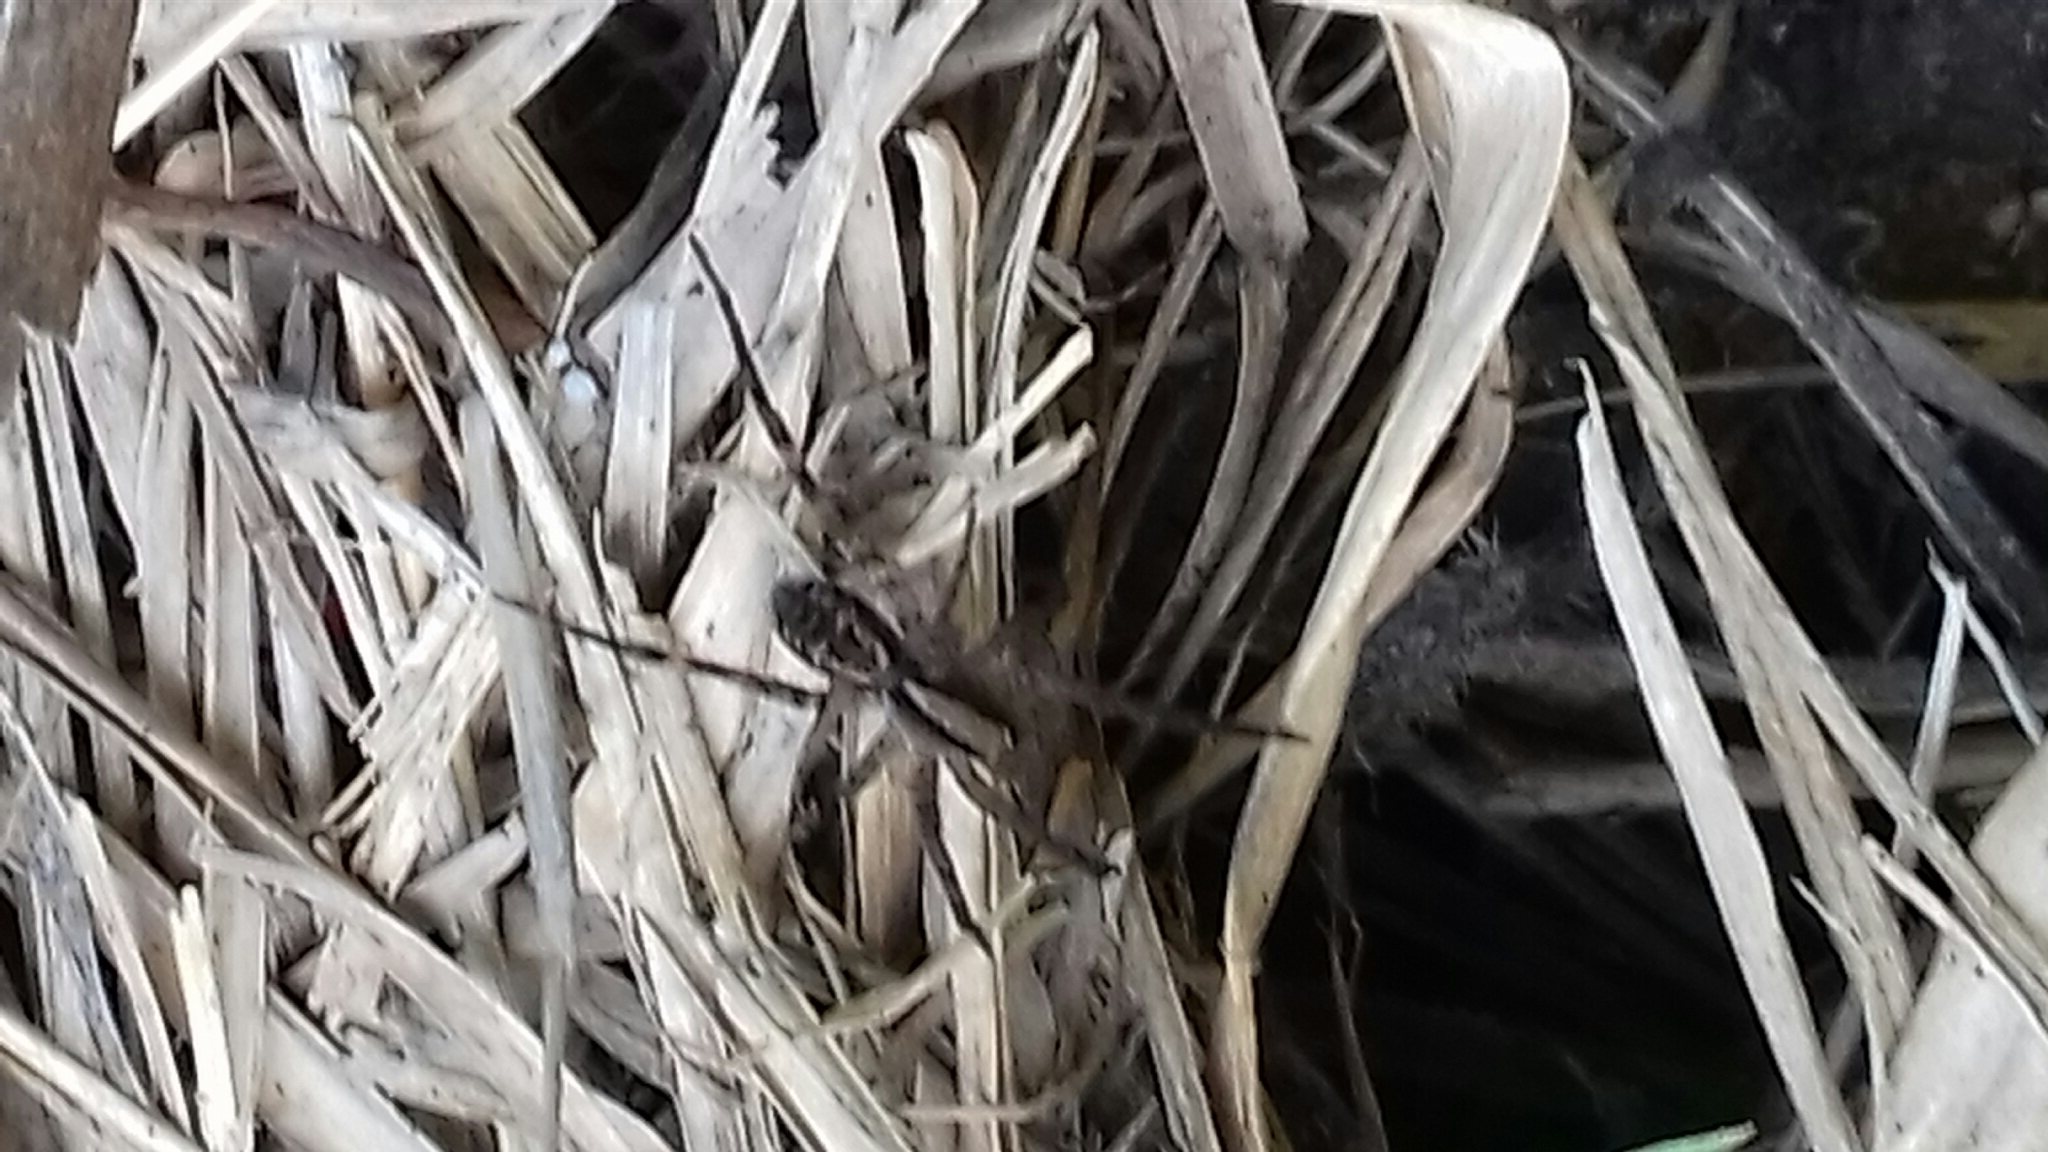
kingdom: Animalia
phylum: Arthropoda
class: Arachnida
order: Araneae
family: Lycosidae
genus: Rabidosa
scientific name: Rabidosa rabida
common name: Rabid wolf spider
